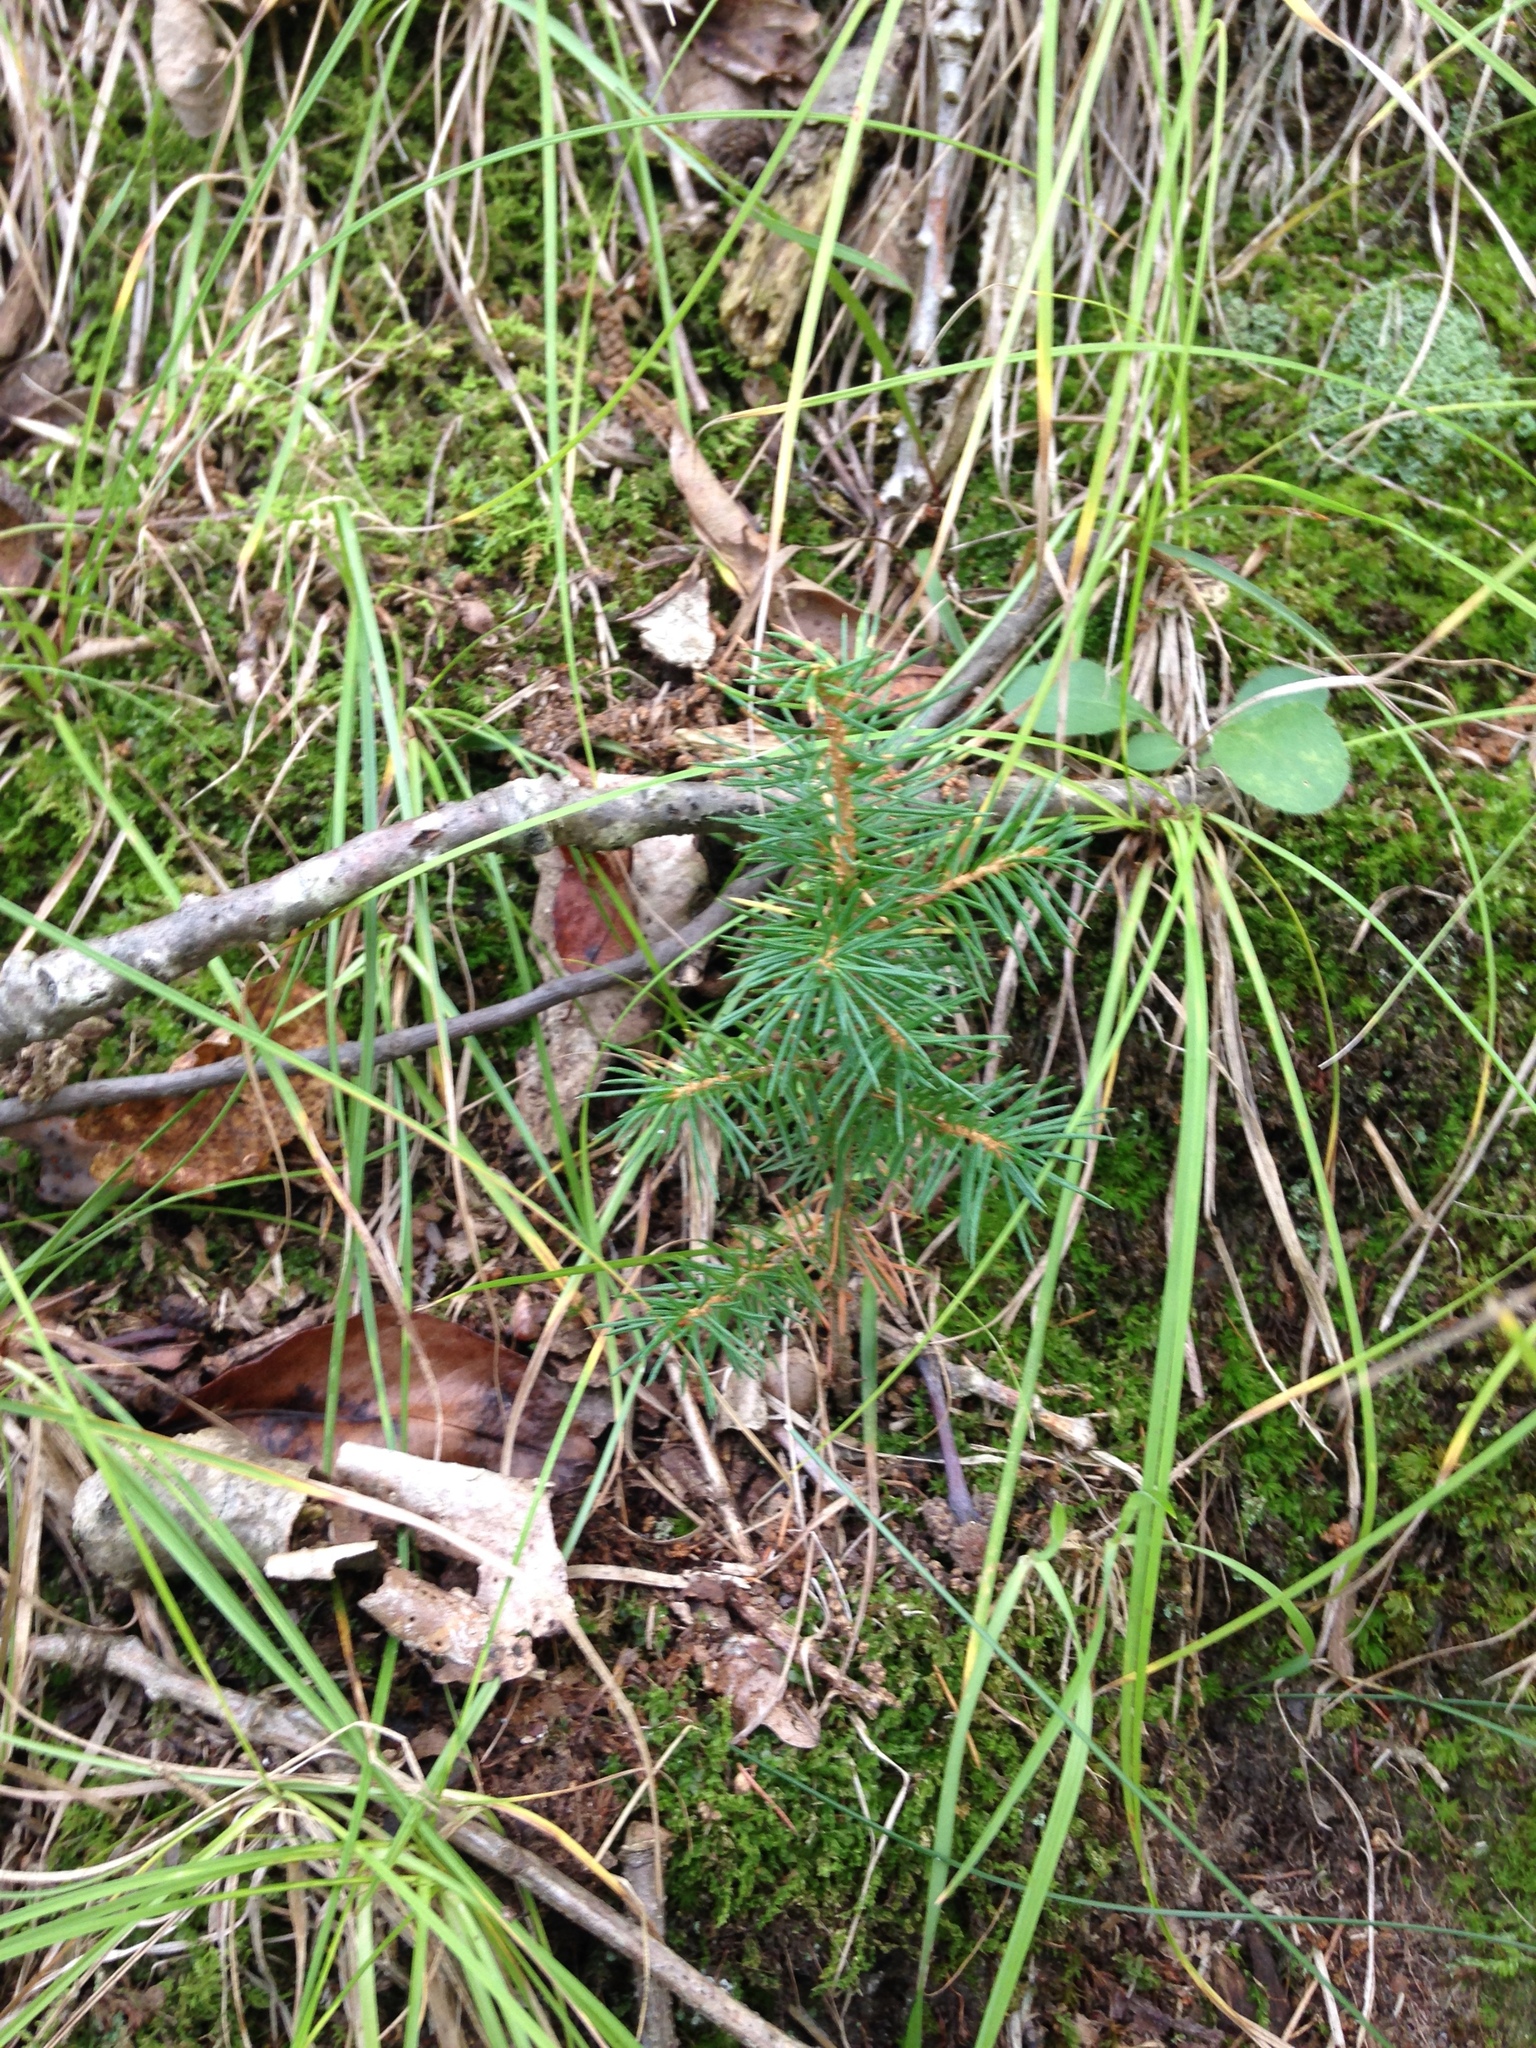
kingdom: Plantae
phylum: Tracheophyta
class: Pinopsida
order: Pinales
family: Pinaceae
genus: Picea
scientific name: Picea abies
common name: Norway spruce
